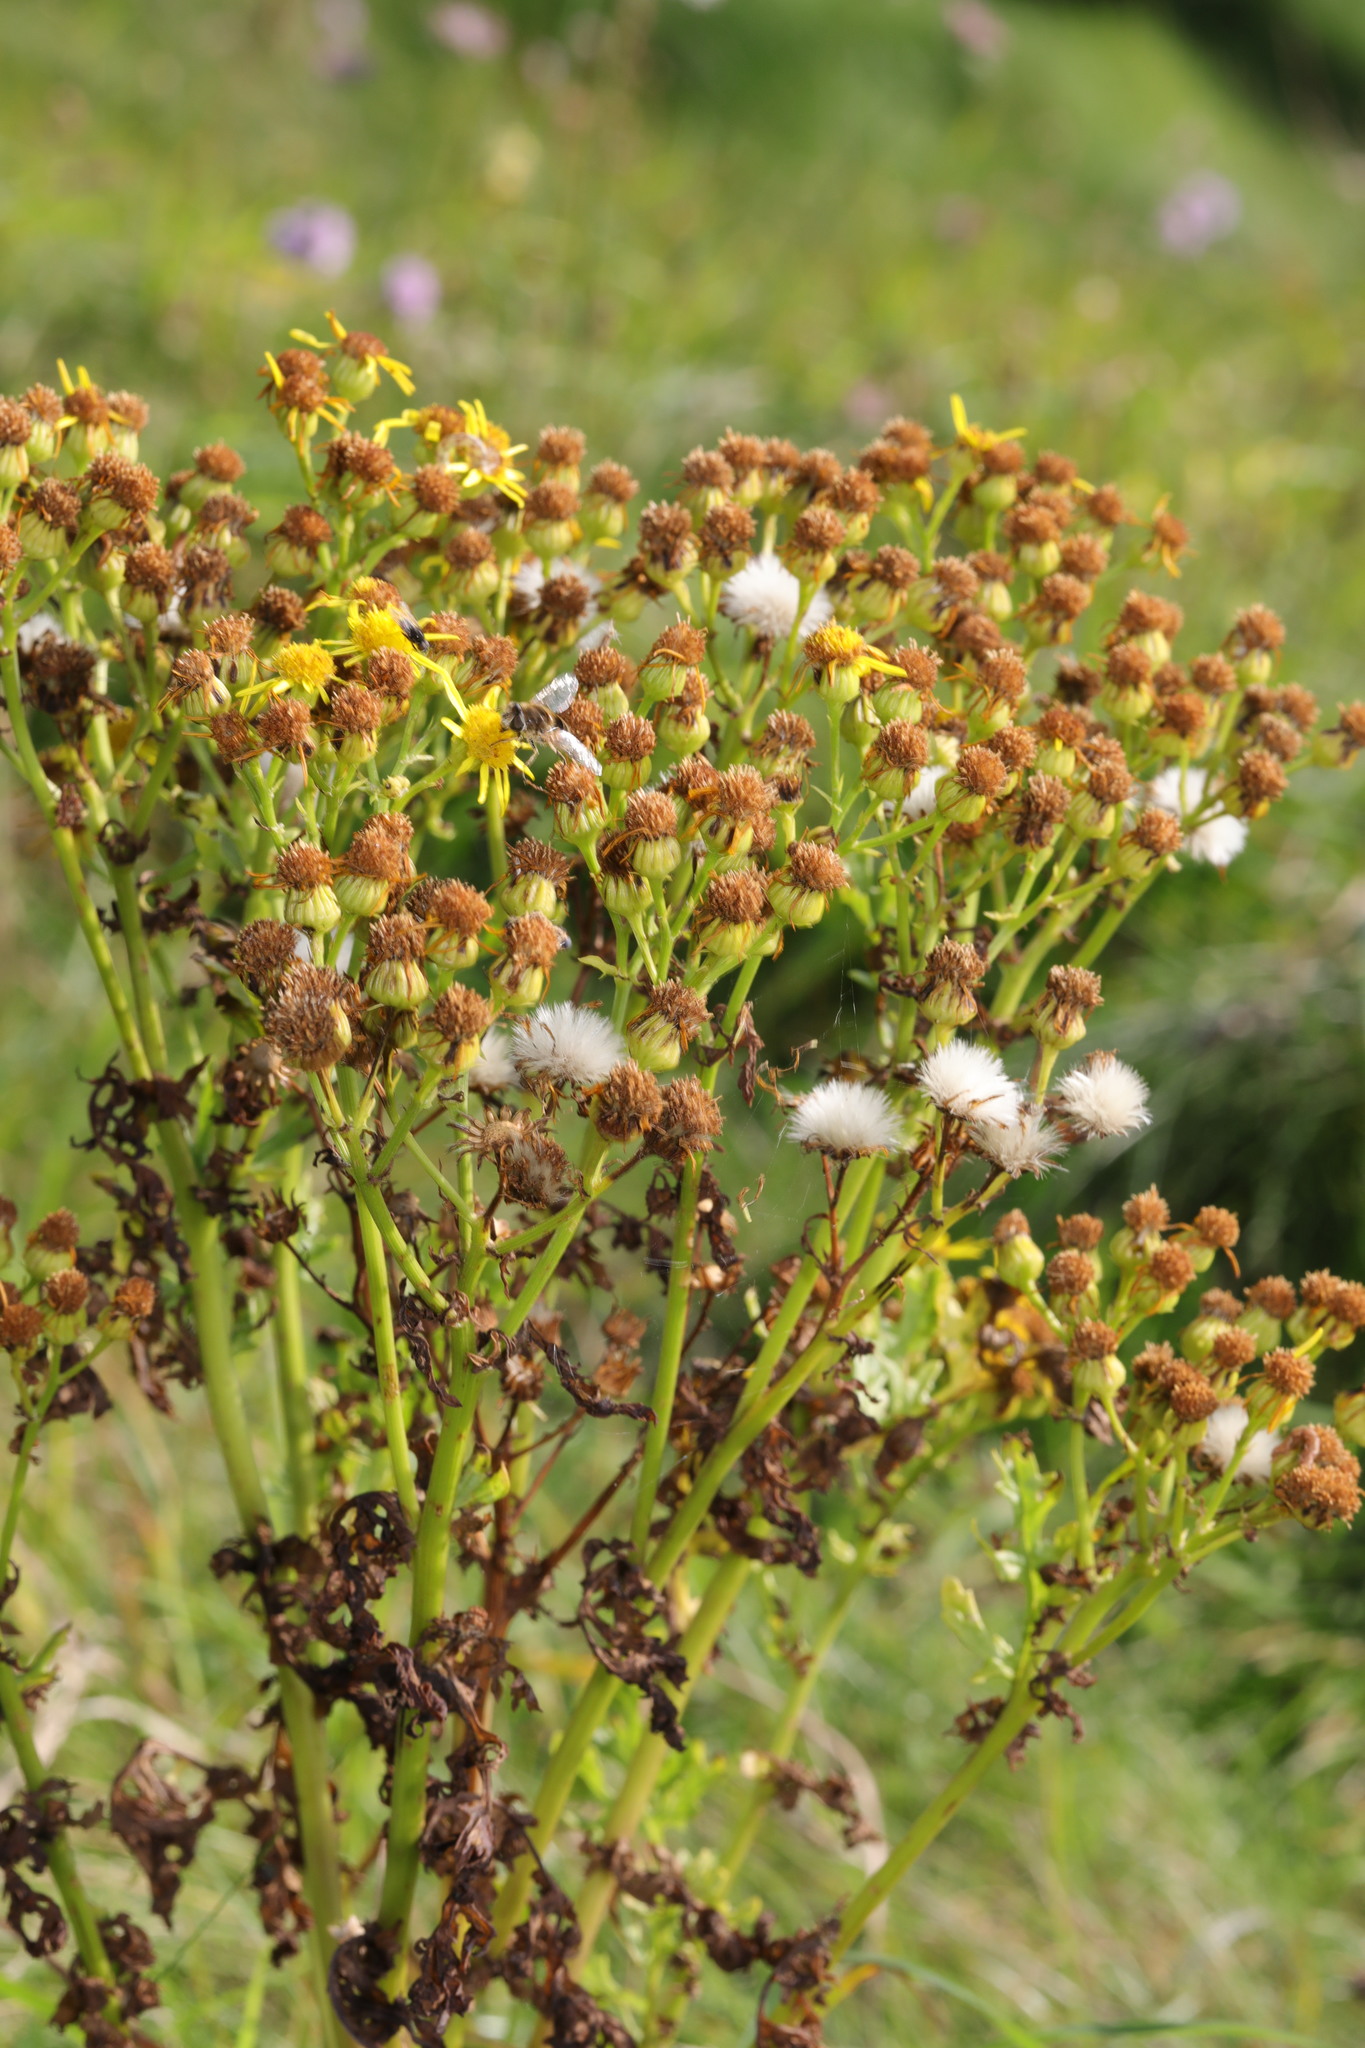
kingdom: Plantae
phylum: Tracheophyta
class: Magnoliopsida
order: Asterales
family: Asteraceae
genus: Jacobaea
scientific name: Jacobaea vulgaris
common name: Stinking willie
